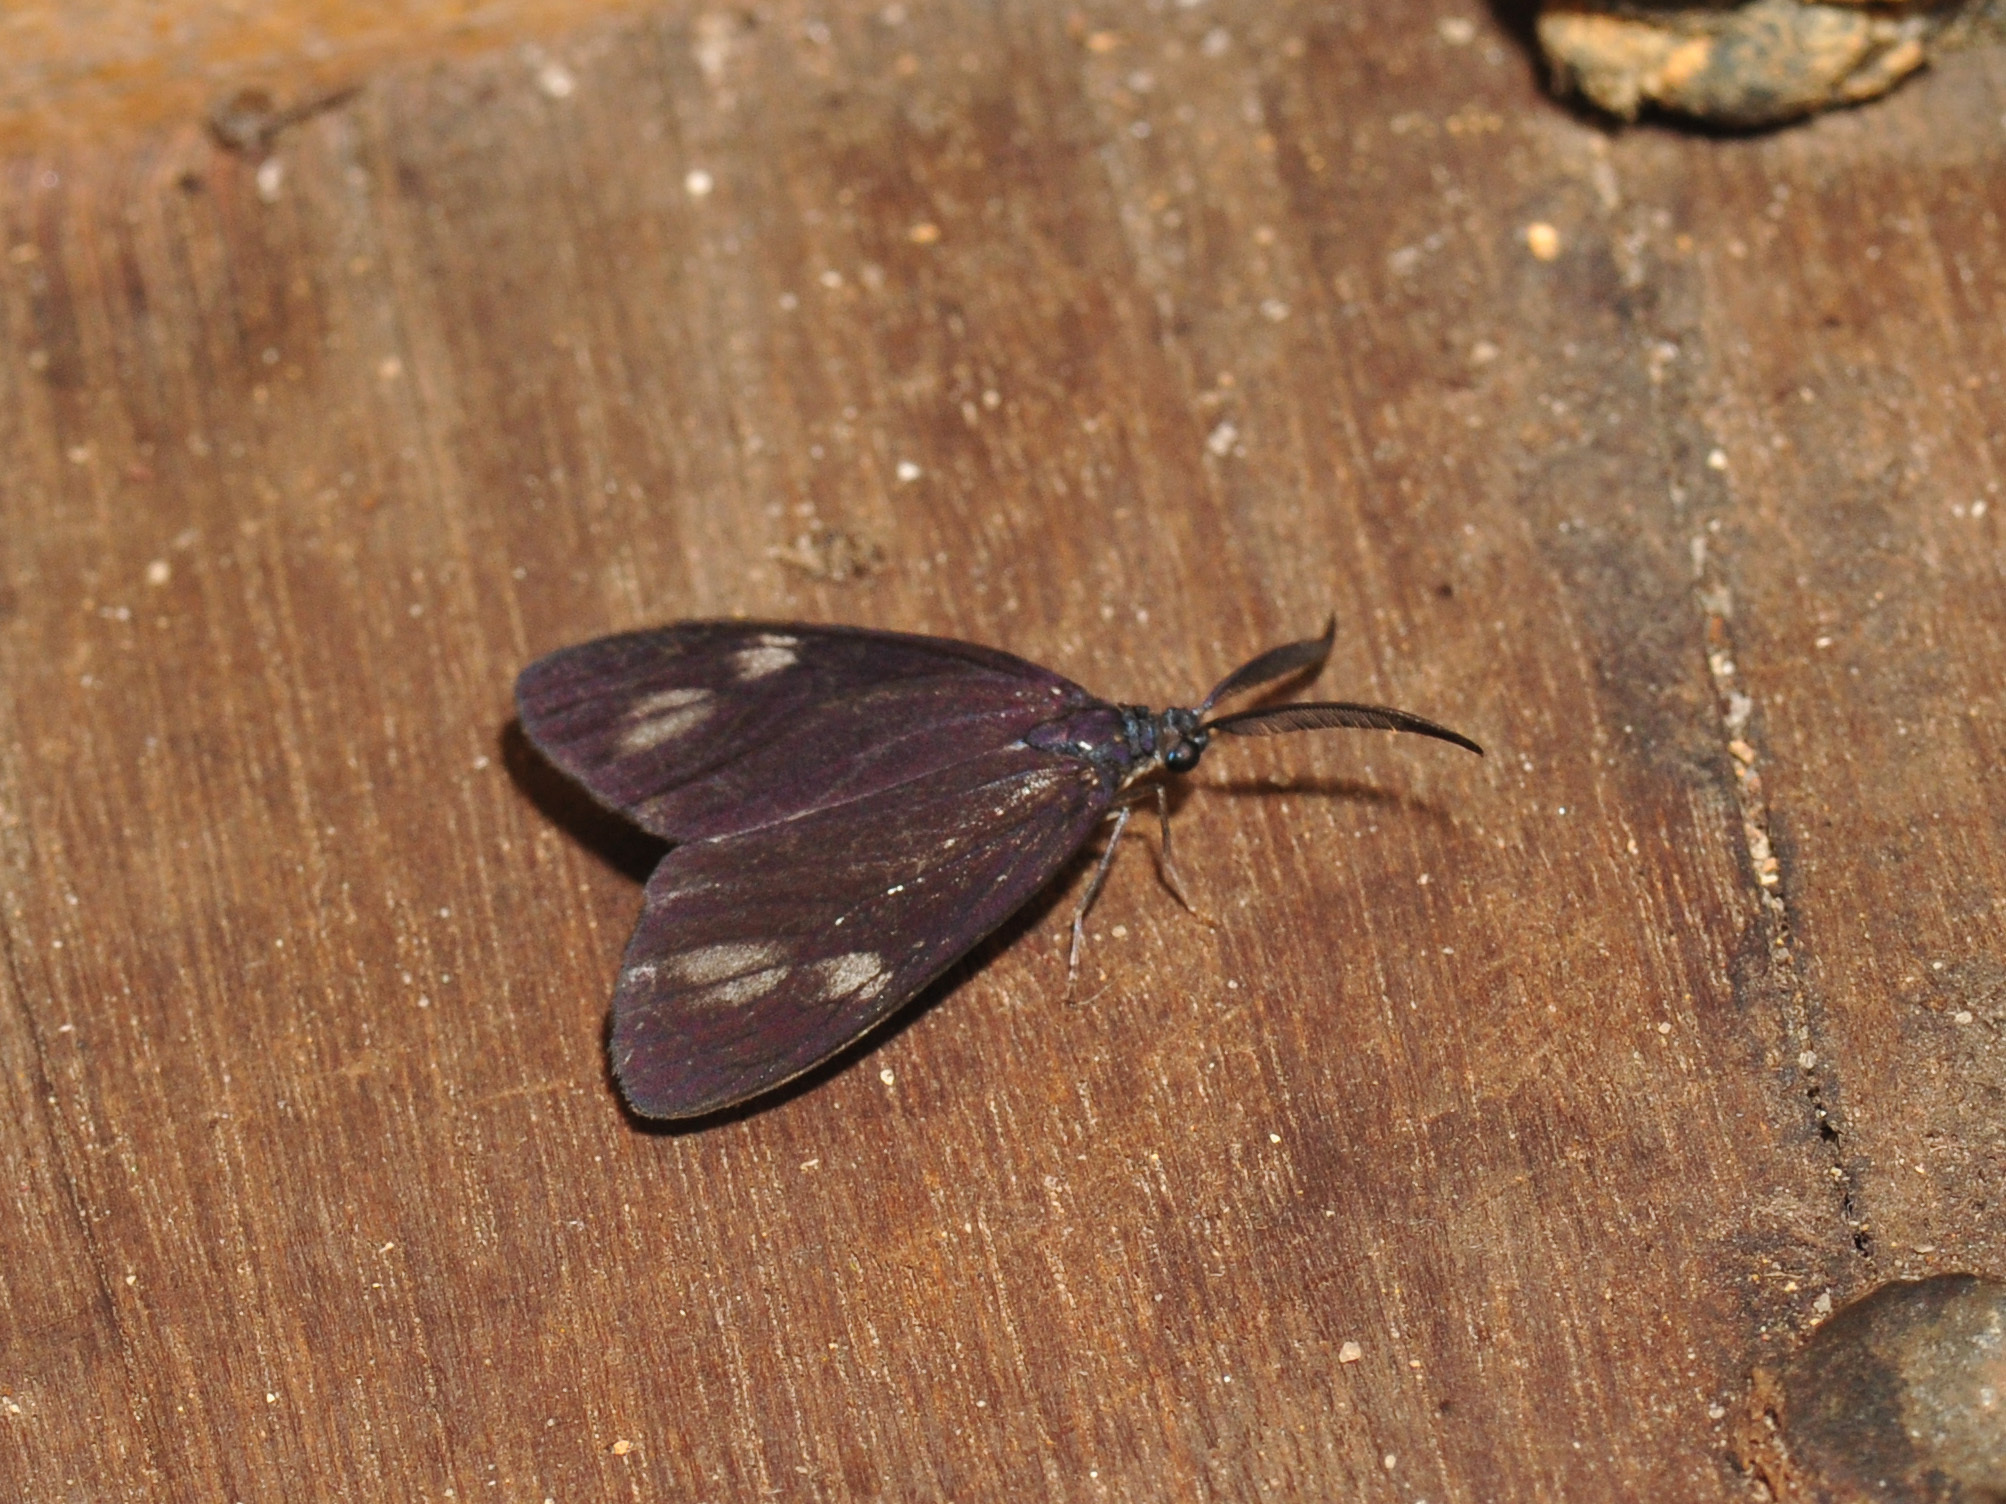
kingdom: Animalia
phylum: Arthropoda
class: Insecta
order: Lepidoptera
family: Zygaenidae
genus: Cyclosia
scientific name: Cyclosia sordidus
